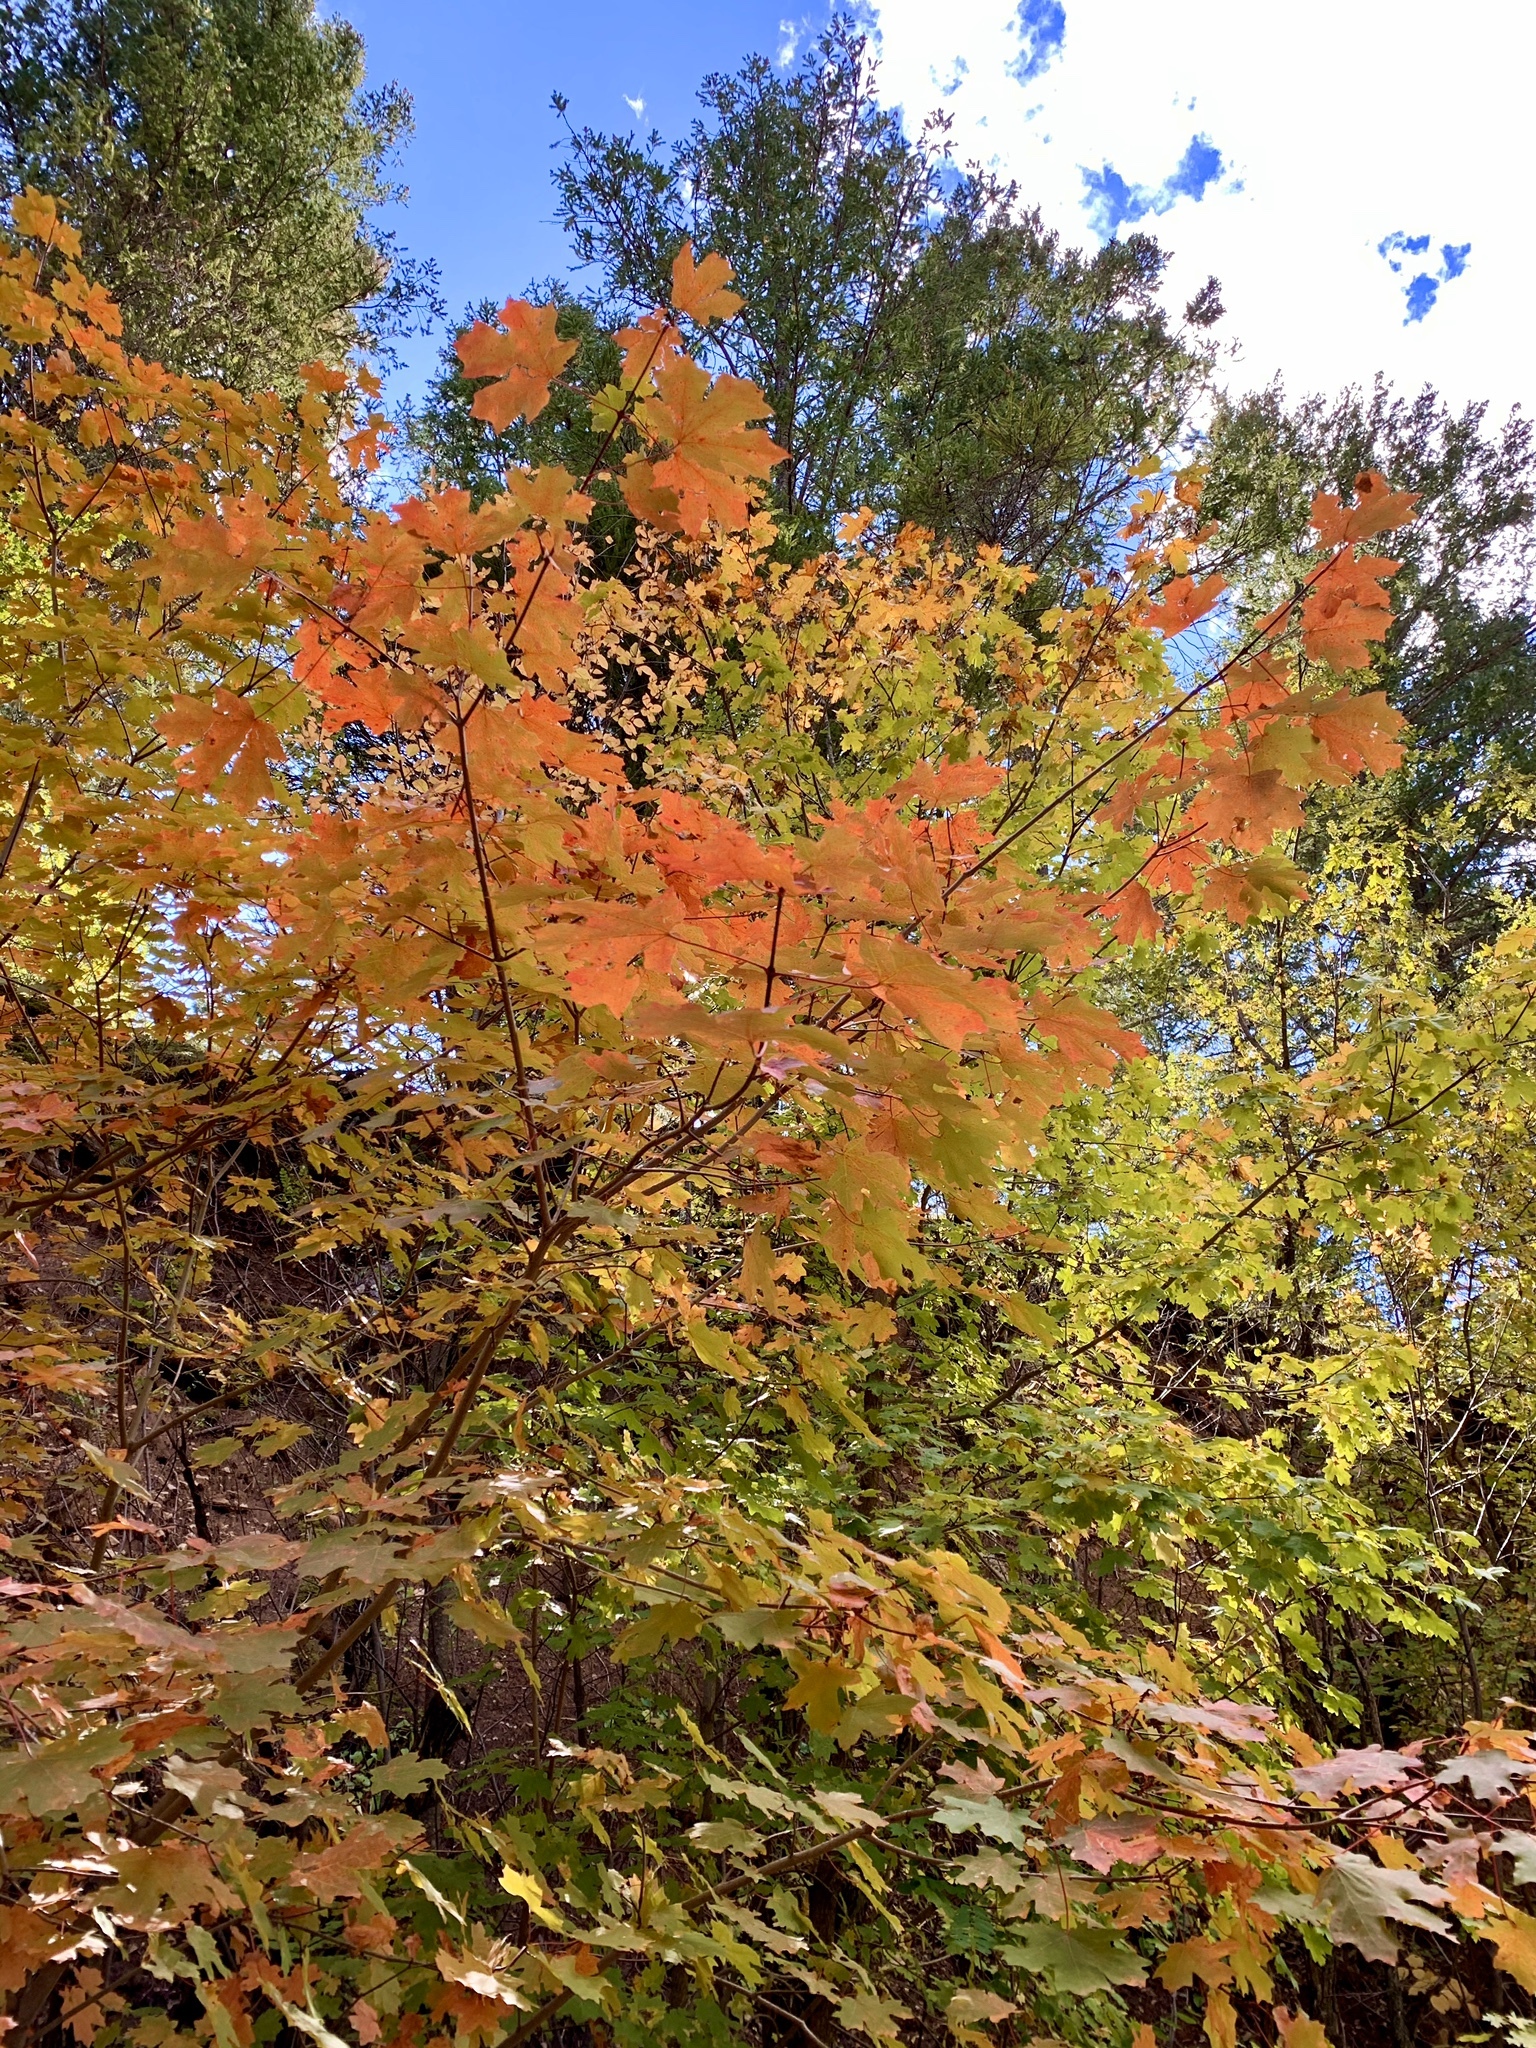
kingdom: Plantae
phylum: Tracheophyta
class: Magnoliopsida
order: Sapindales
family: Sapindaceae
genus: Acer
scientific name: Acer grandidentatum
